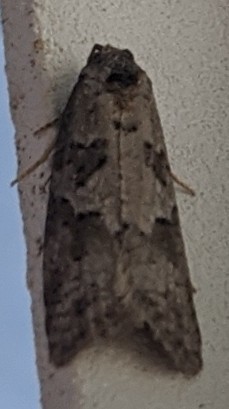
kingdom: Animalia
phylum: Arthropoda
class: Insecta
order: Lepidoptera
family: Tortricidae
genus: Cnephasia
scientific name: Cnephasia stephensiana
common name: Grey tortrix
